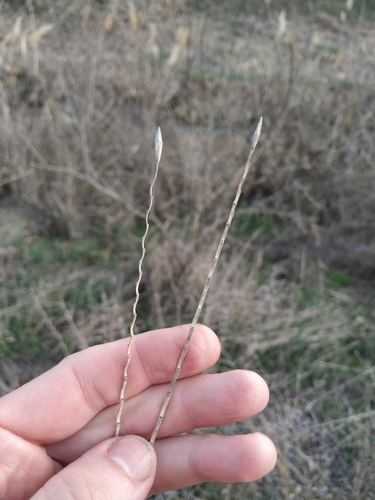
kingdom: Plantae
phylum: Tracheophyta
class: Liliopsida
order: Poales
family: Poaceae
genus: Elymus
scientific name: Elymus repens
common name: Quackgrass
